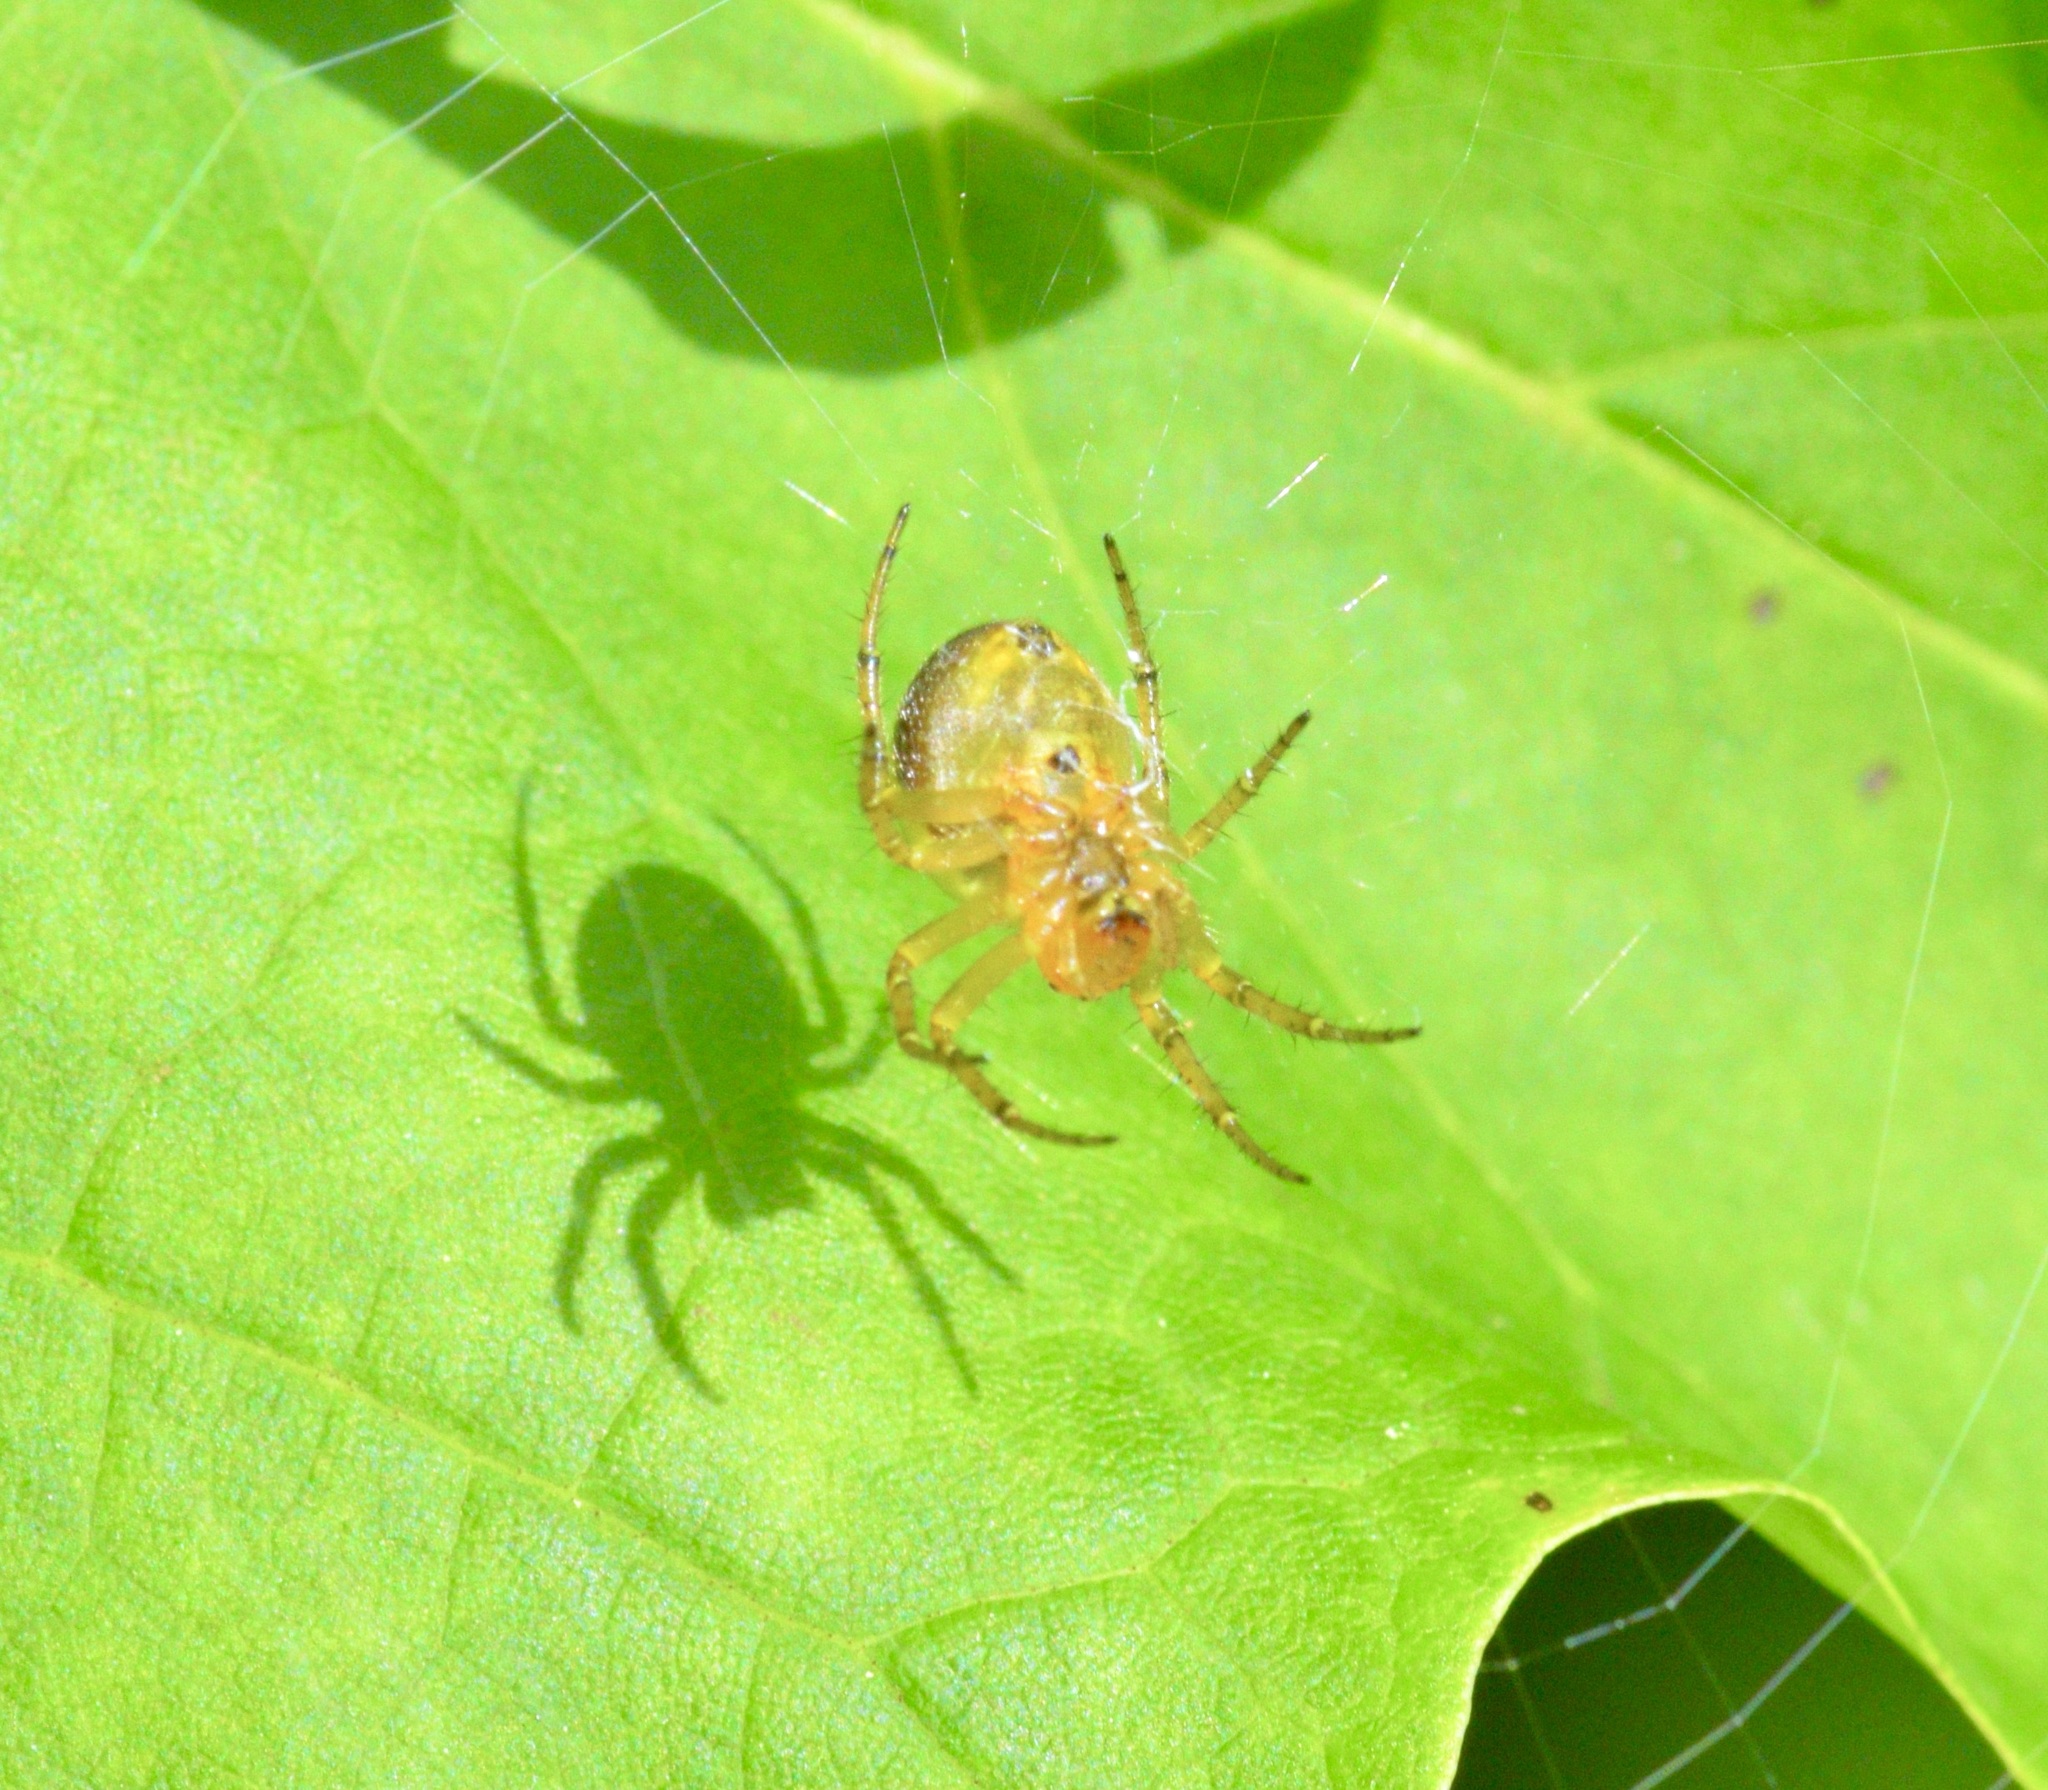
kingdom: Animalia
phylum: Arthropoda
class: Arachnida
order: Araneae
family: Araneidae
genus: Araniella
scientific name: Araniella displicata
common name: Sixspotted orb weaver
